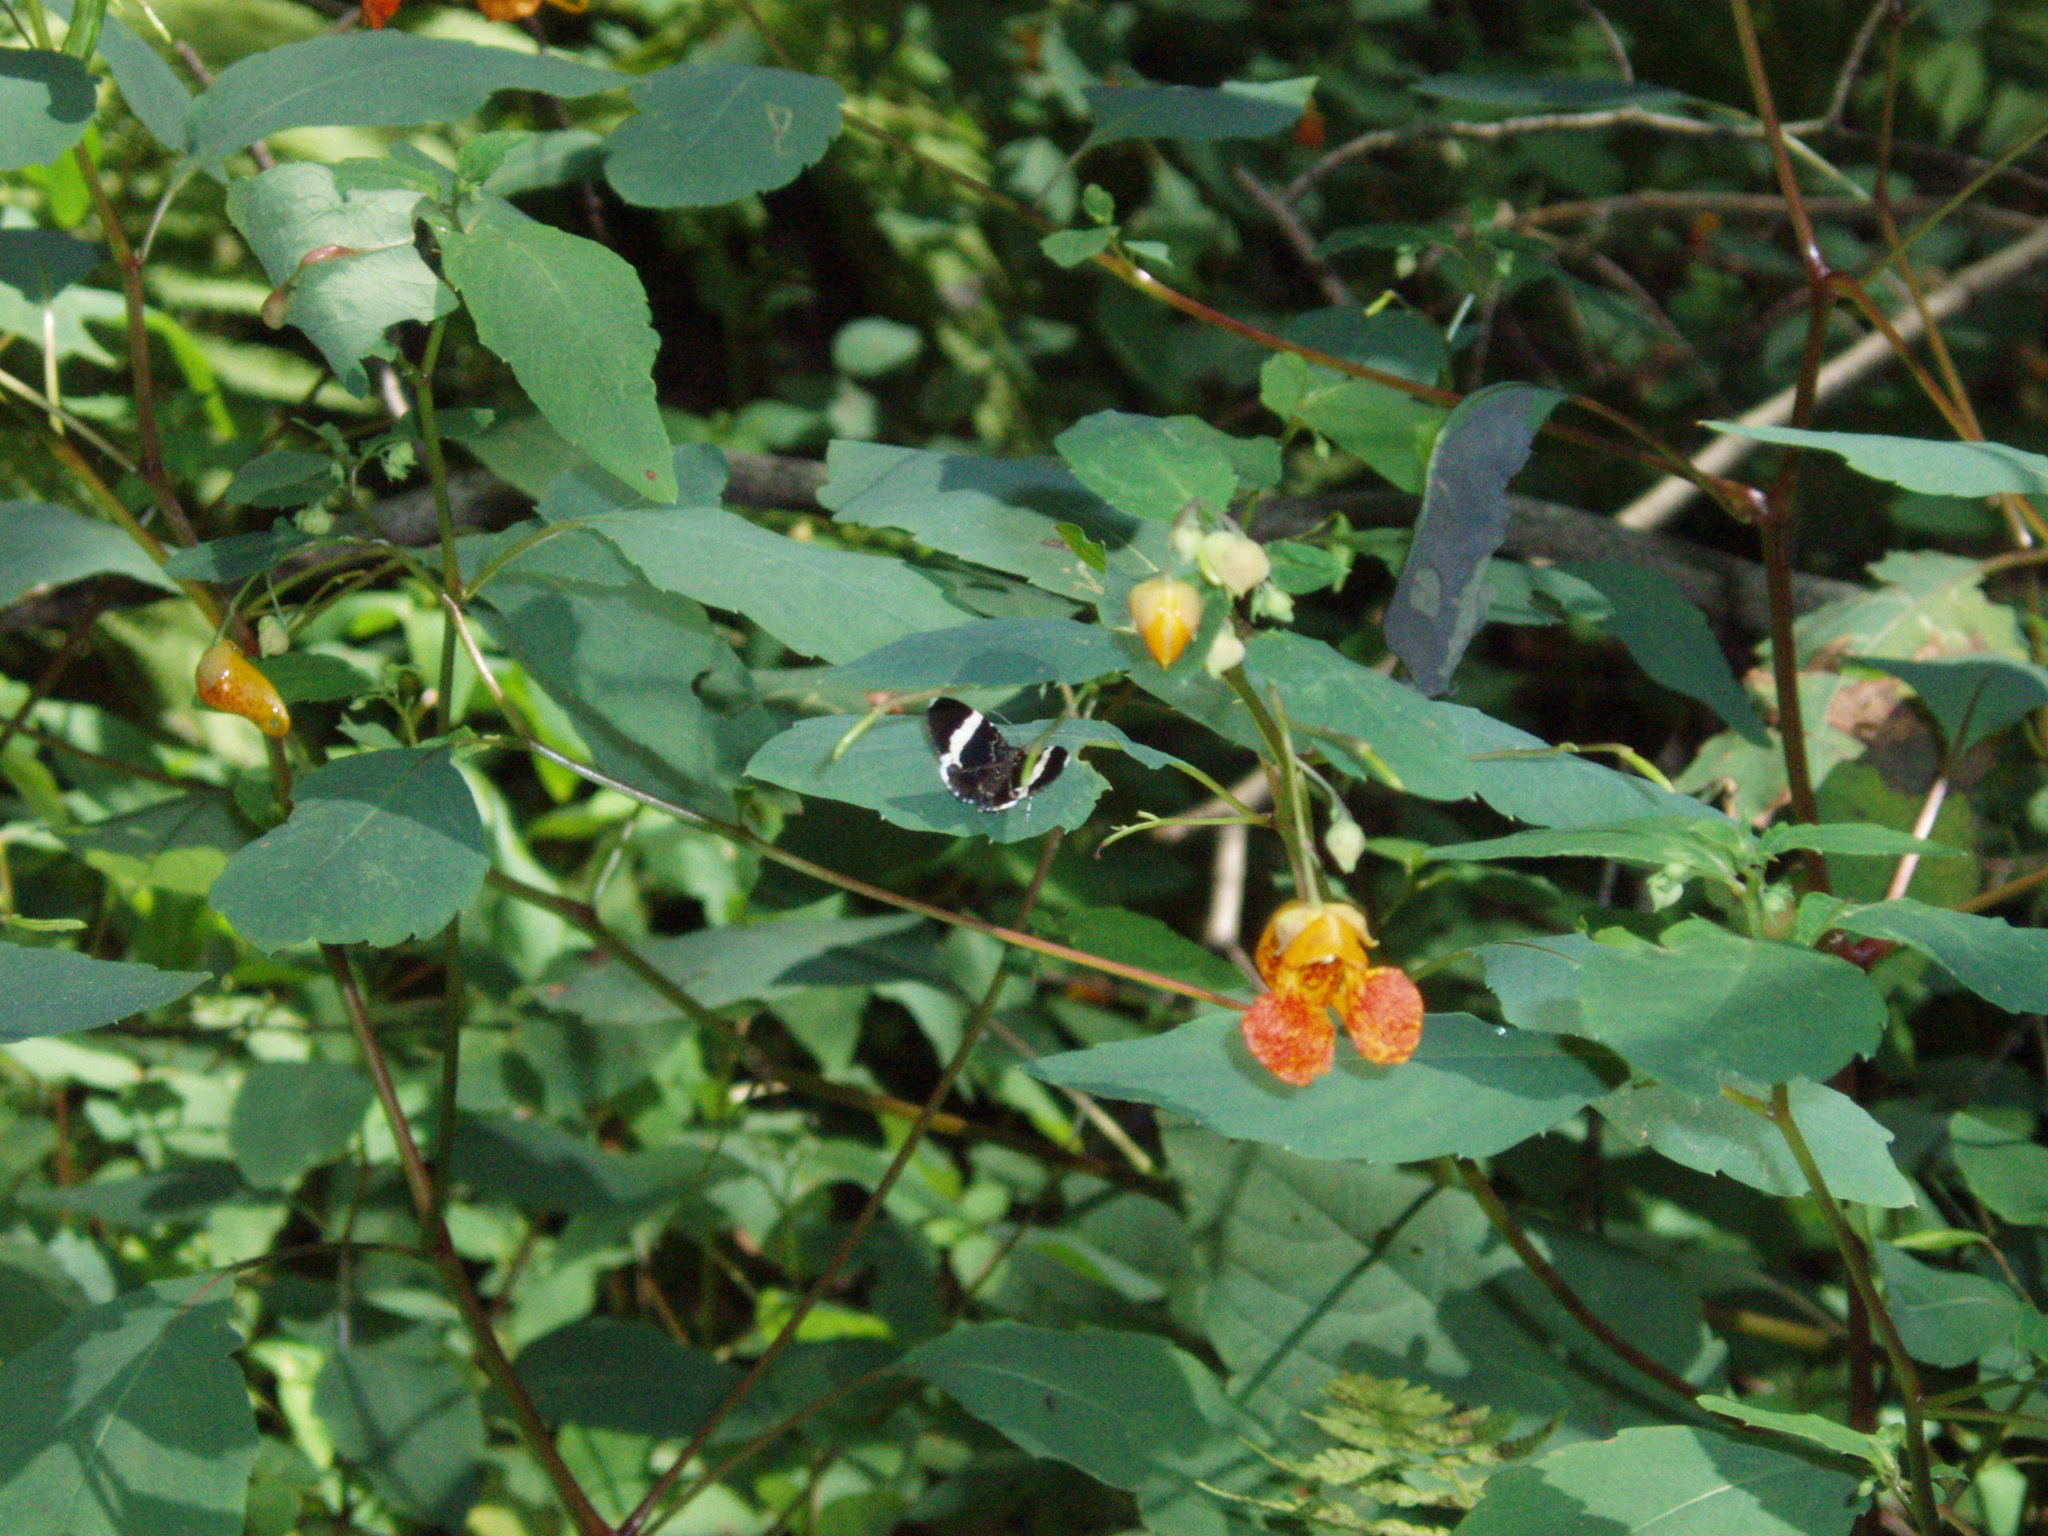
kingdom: Animalia
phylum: Arthropoda
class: Insecta
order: Lepidoptera
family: Geometridae
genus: Trichodezia
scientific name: Trichodezia albovittata
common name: White striped black
